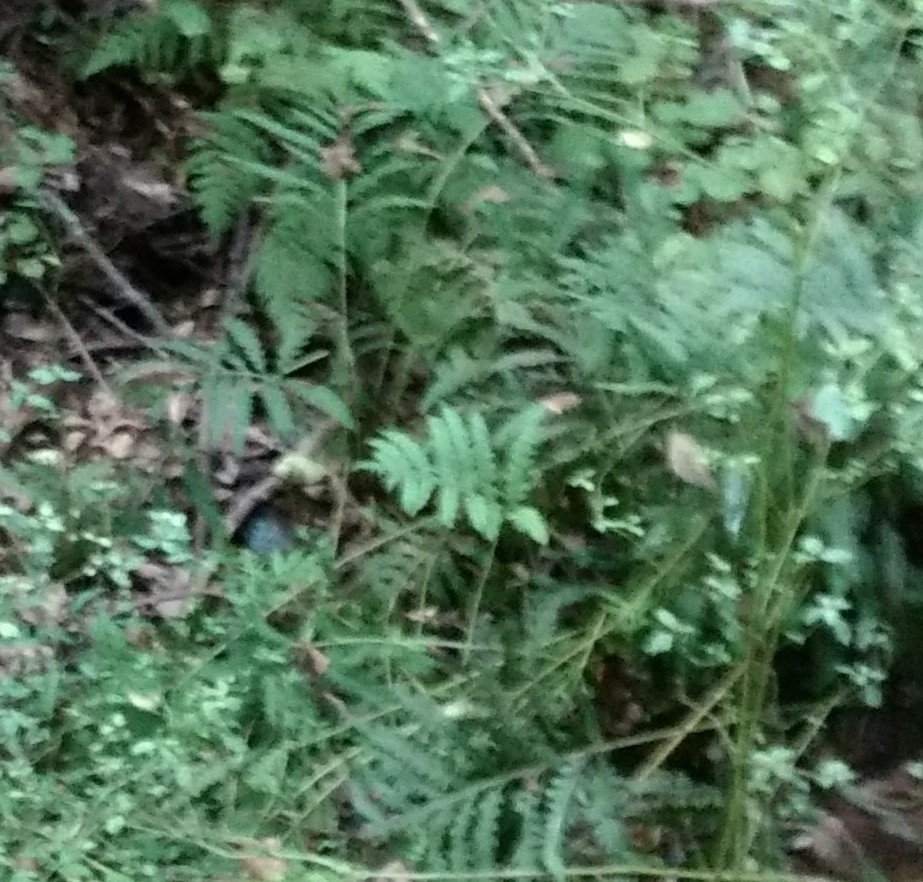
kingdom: Plantae
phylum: Tracheophyta
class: Polypodiopsida
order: Polypodiales
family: Onocleaceae
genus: Onoclea
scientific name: Onoclea sensibilis
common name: Sensitive fern
